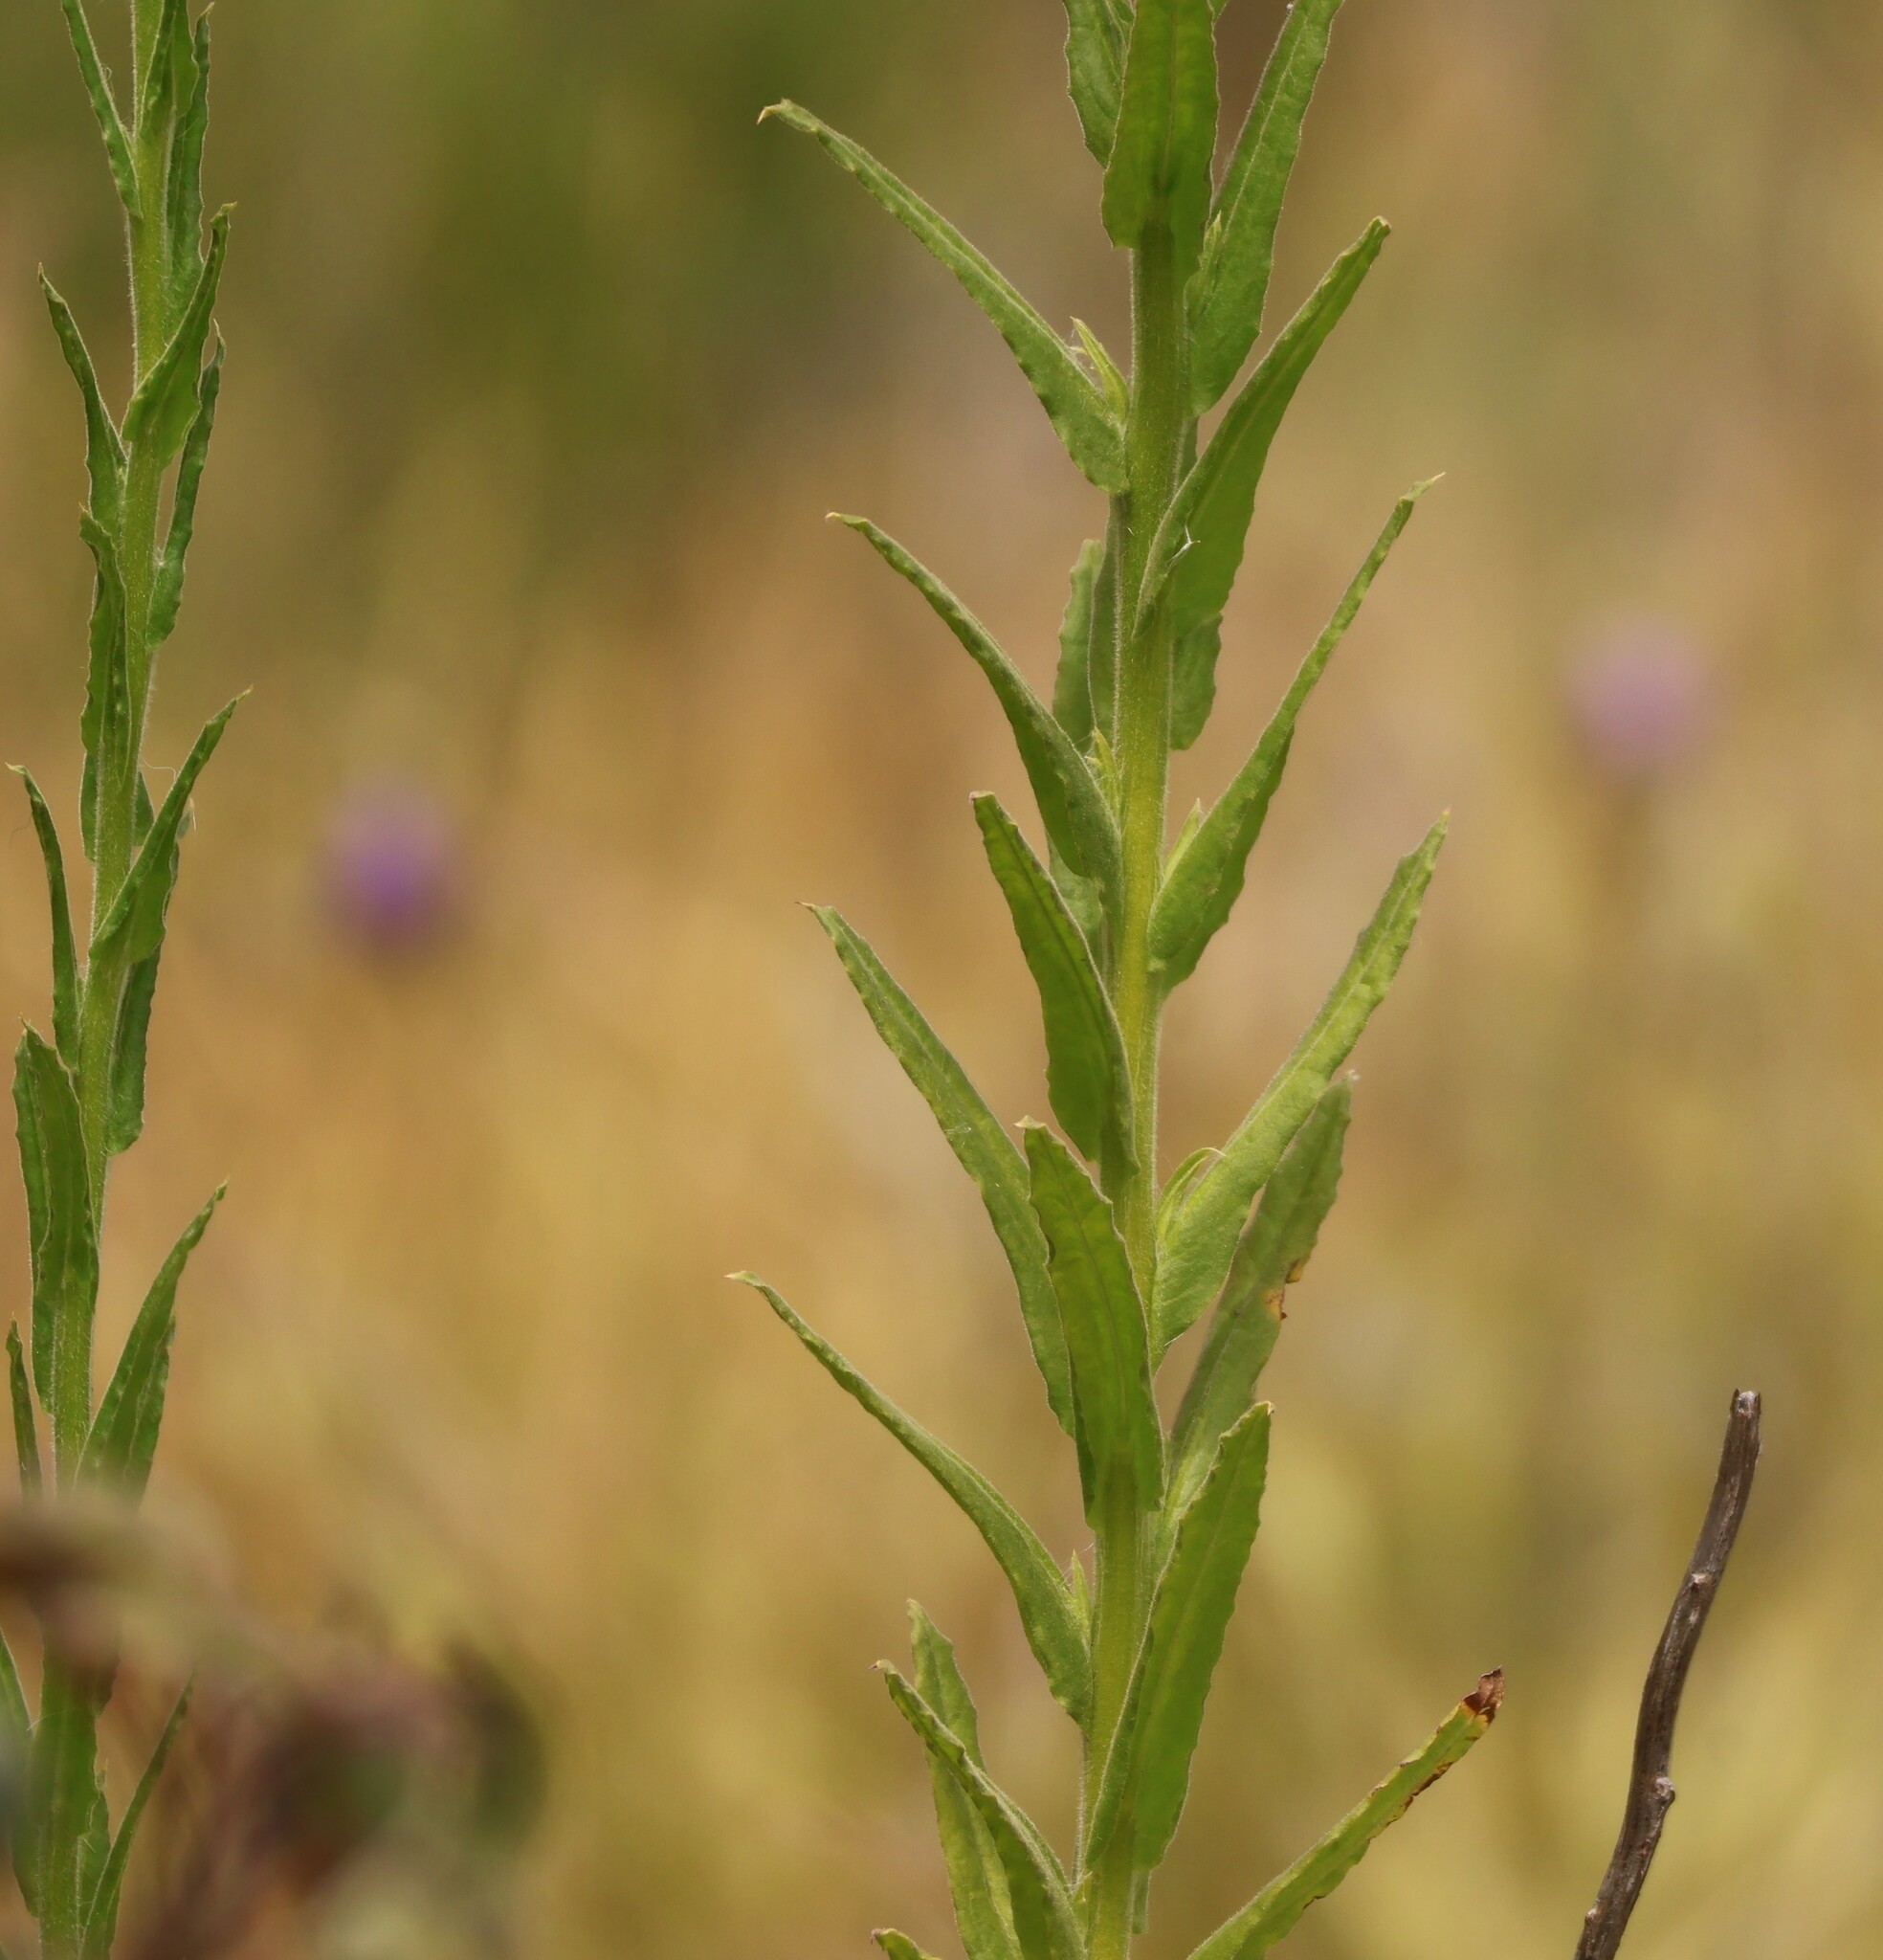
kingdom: Plantae
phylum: Tracheophyta
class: Magnoliopsida
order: Asterales
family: Asteraceae
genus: Pseudognaphalium
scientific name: Pseudognaphalium californicum
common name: California rabbit-tobacco
